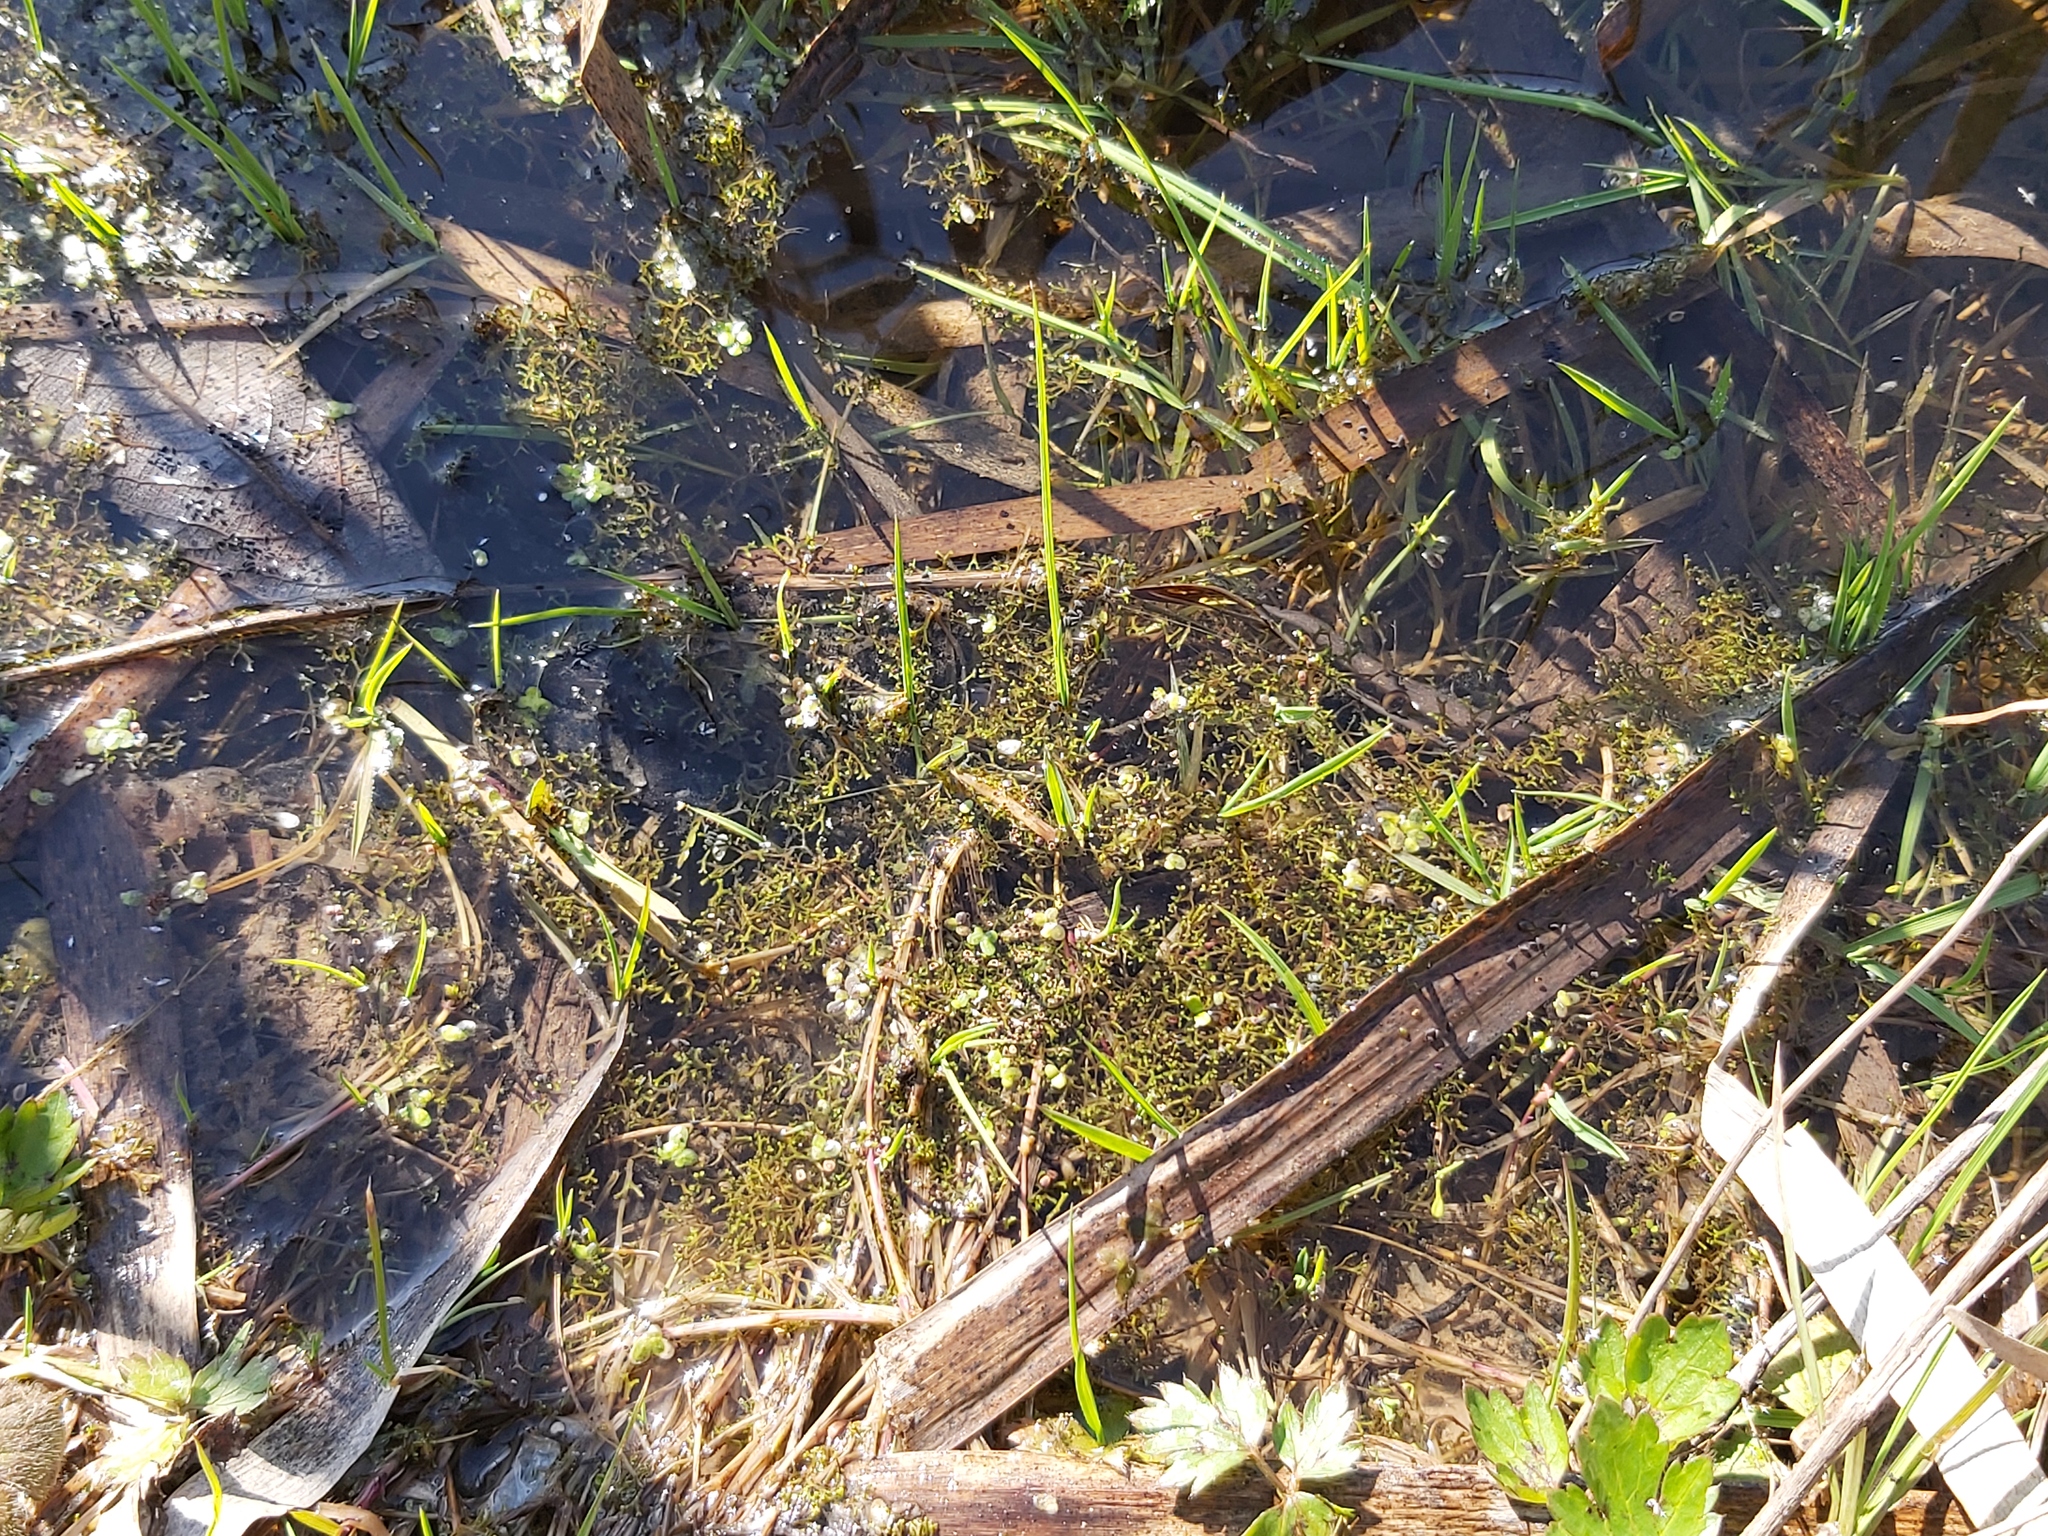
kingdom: Plantae
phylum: Marchantiophyta
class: Marchantiopsida
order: Marchantiales
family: Ricciaceae
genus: Riccia
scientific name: Riccia fluitans
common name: Floating crystalwort
